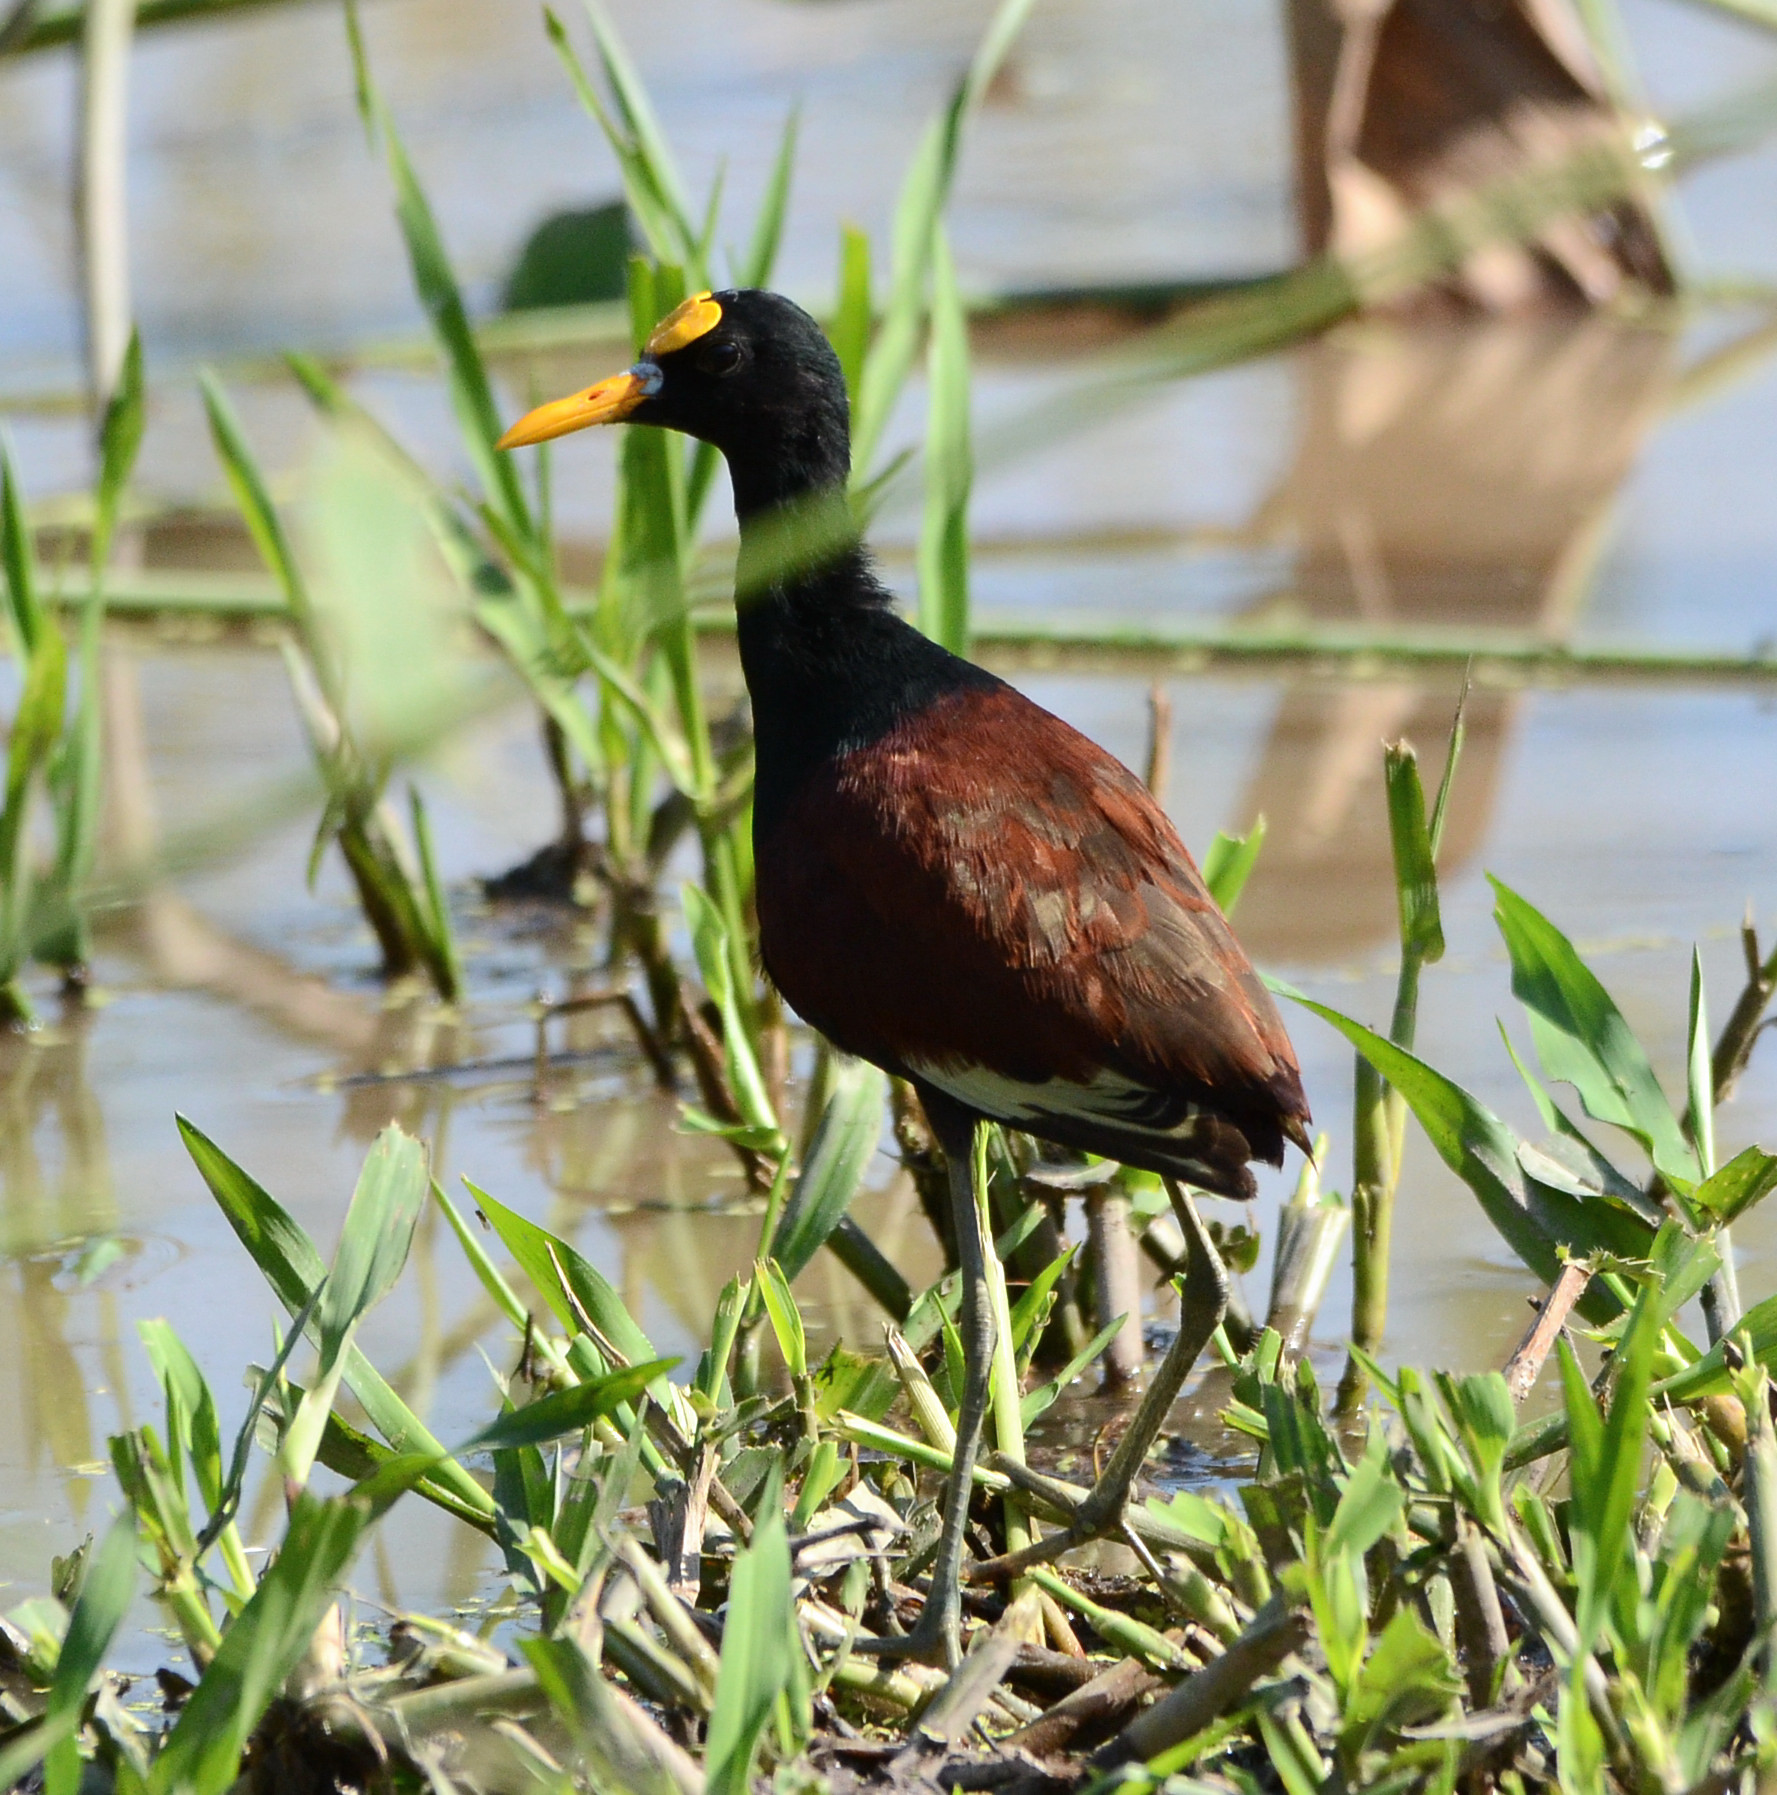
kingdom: Animalia
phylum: Chordata
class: Aves
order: Charadriiformes
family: Jacanidae
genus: Jacana
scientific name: Jacana spinosa
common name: Northern jacana
